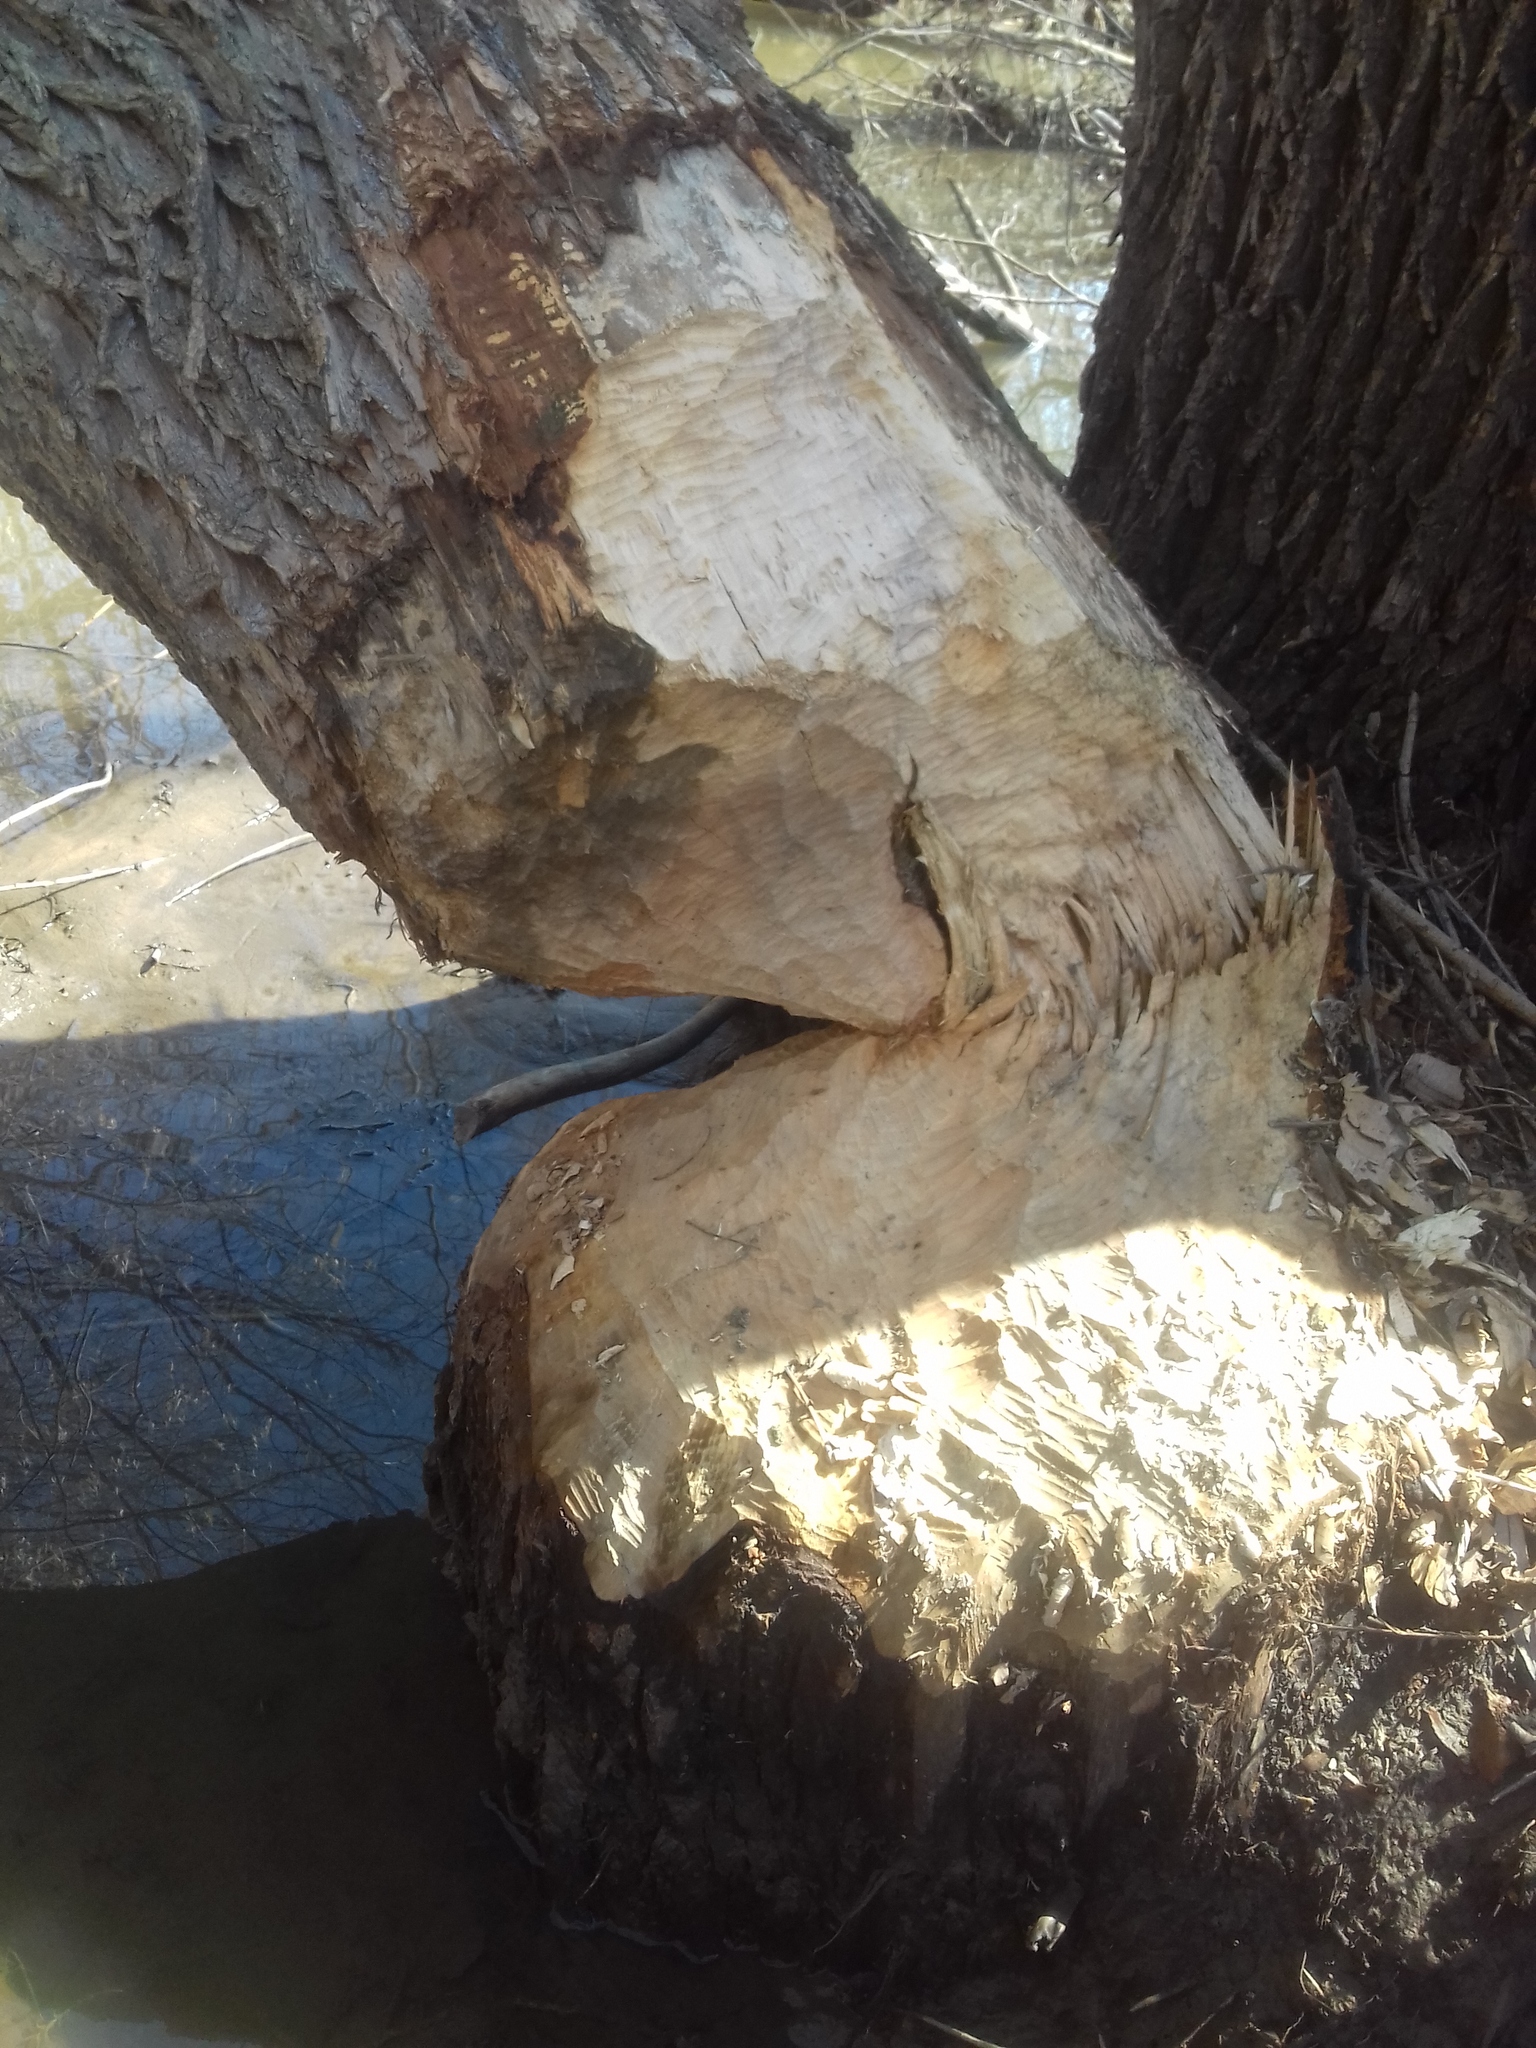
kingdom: Animalia
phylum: Chordata
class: Mammalia
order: Rodentia
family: Castoridae
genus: Castor
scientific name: Castor fiber
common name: Eurasian beaver
